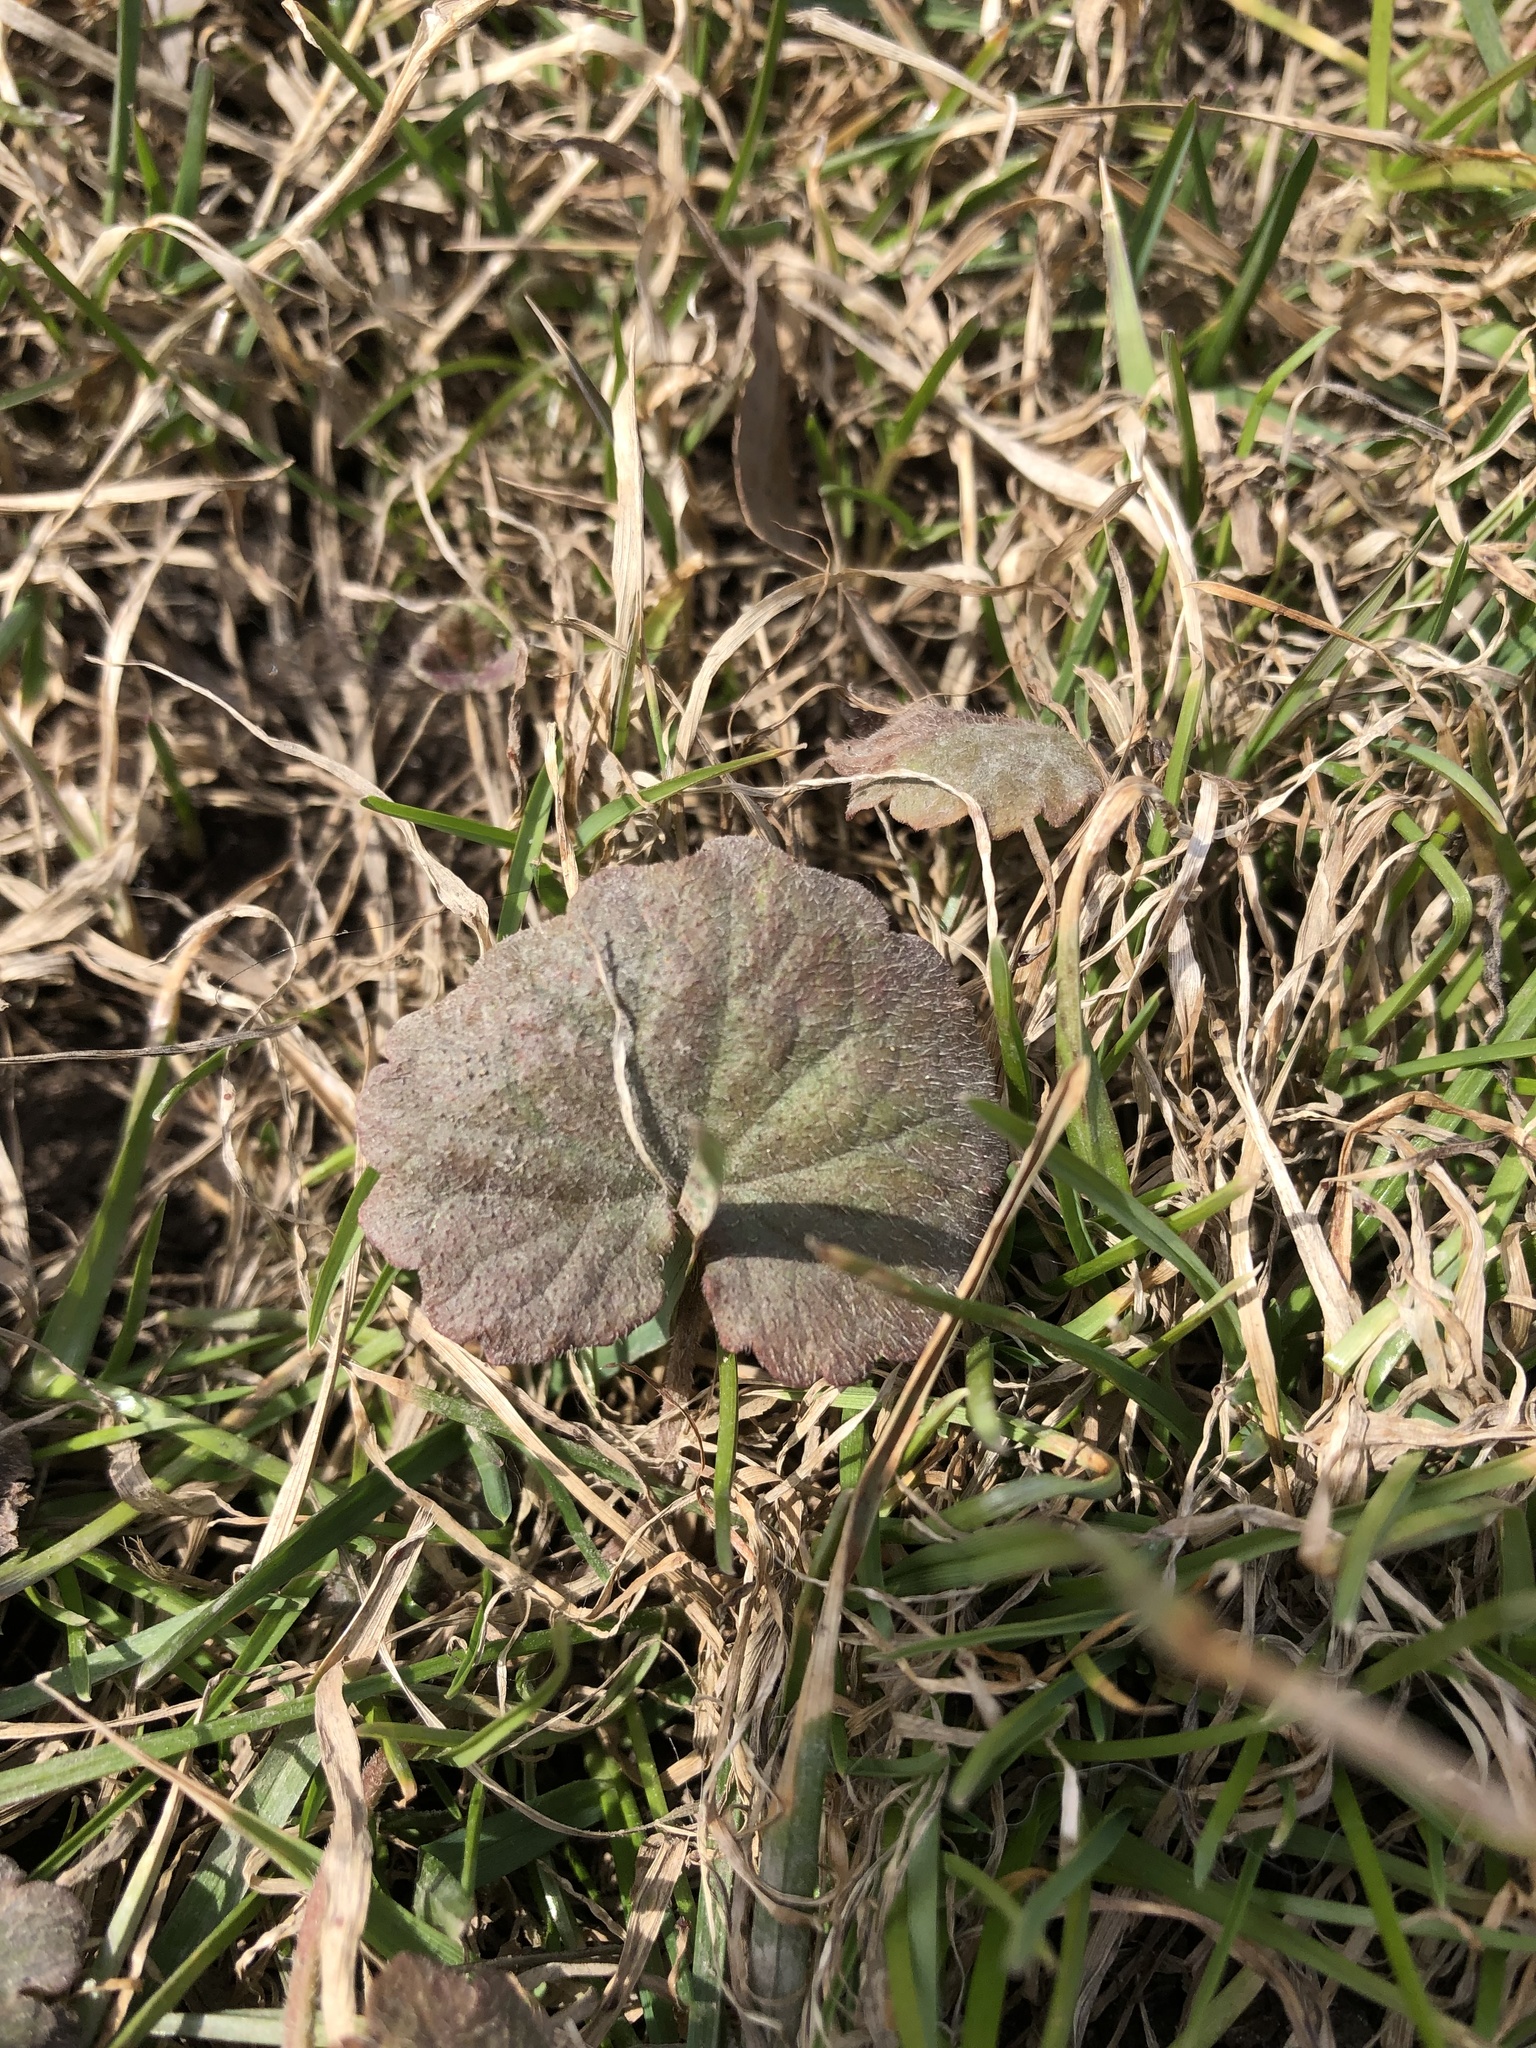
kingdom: Plantae
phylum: Tracheophyta
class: Magnoliopsida
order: Lamiales
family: Lamiaceae
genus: Glechoma
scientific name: Glechoma hederacea
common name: Ground ivy
